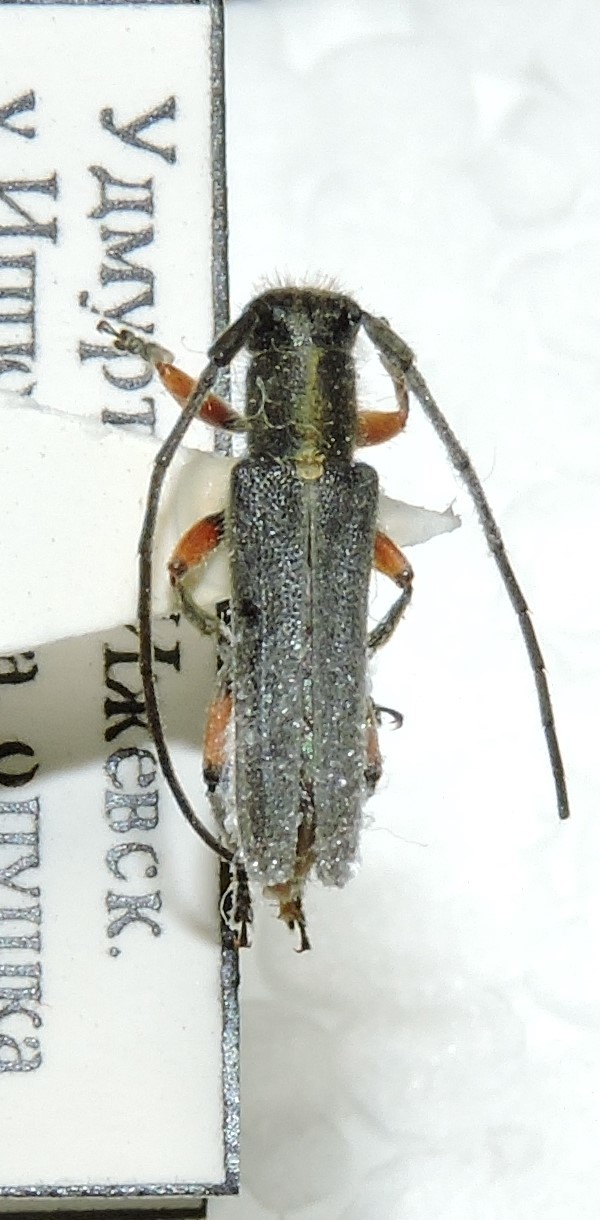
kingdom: Animalia
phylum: Arthropoda
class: Insecta
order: Coleoptera
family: Cerambycidae
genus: Phytoecia
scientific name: Phytoecia icterica
